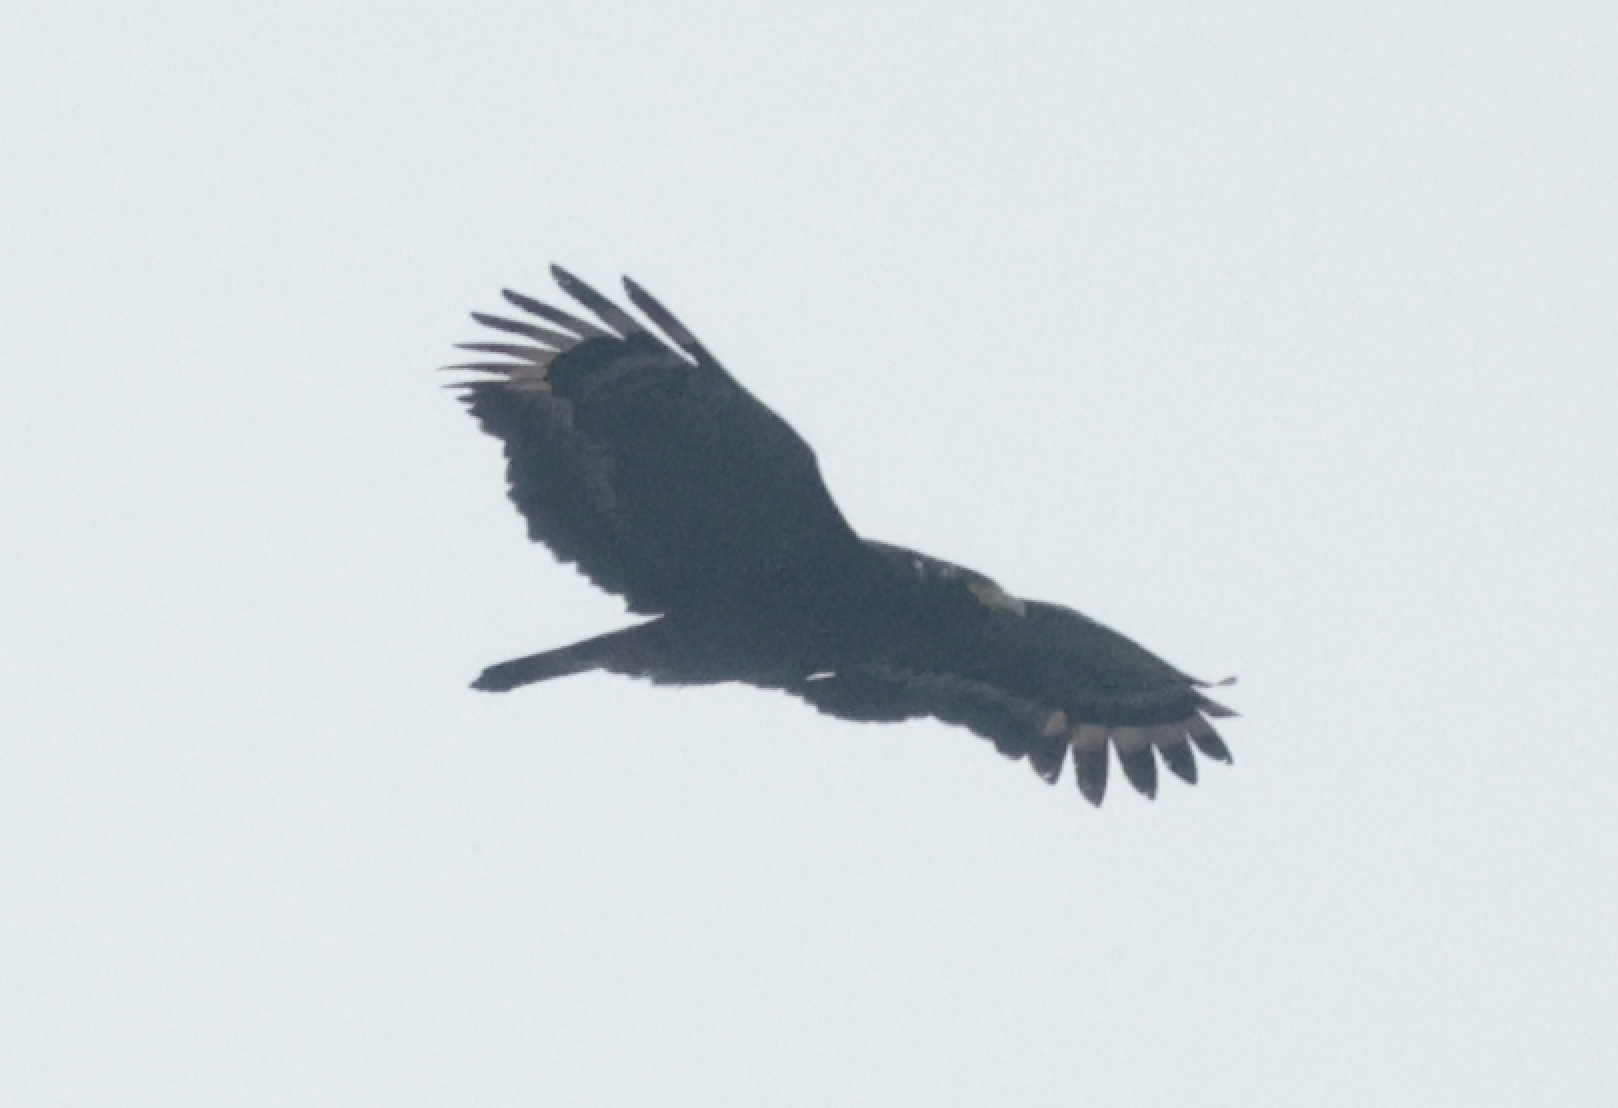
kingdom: Animalia
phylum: Chordata
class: Aves
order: Accipitriformes
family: Accipitridae
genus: Spilornis
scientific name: Spilornis cheela
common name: Crested serpent eagle
